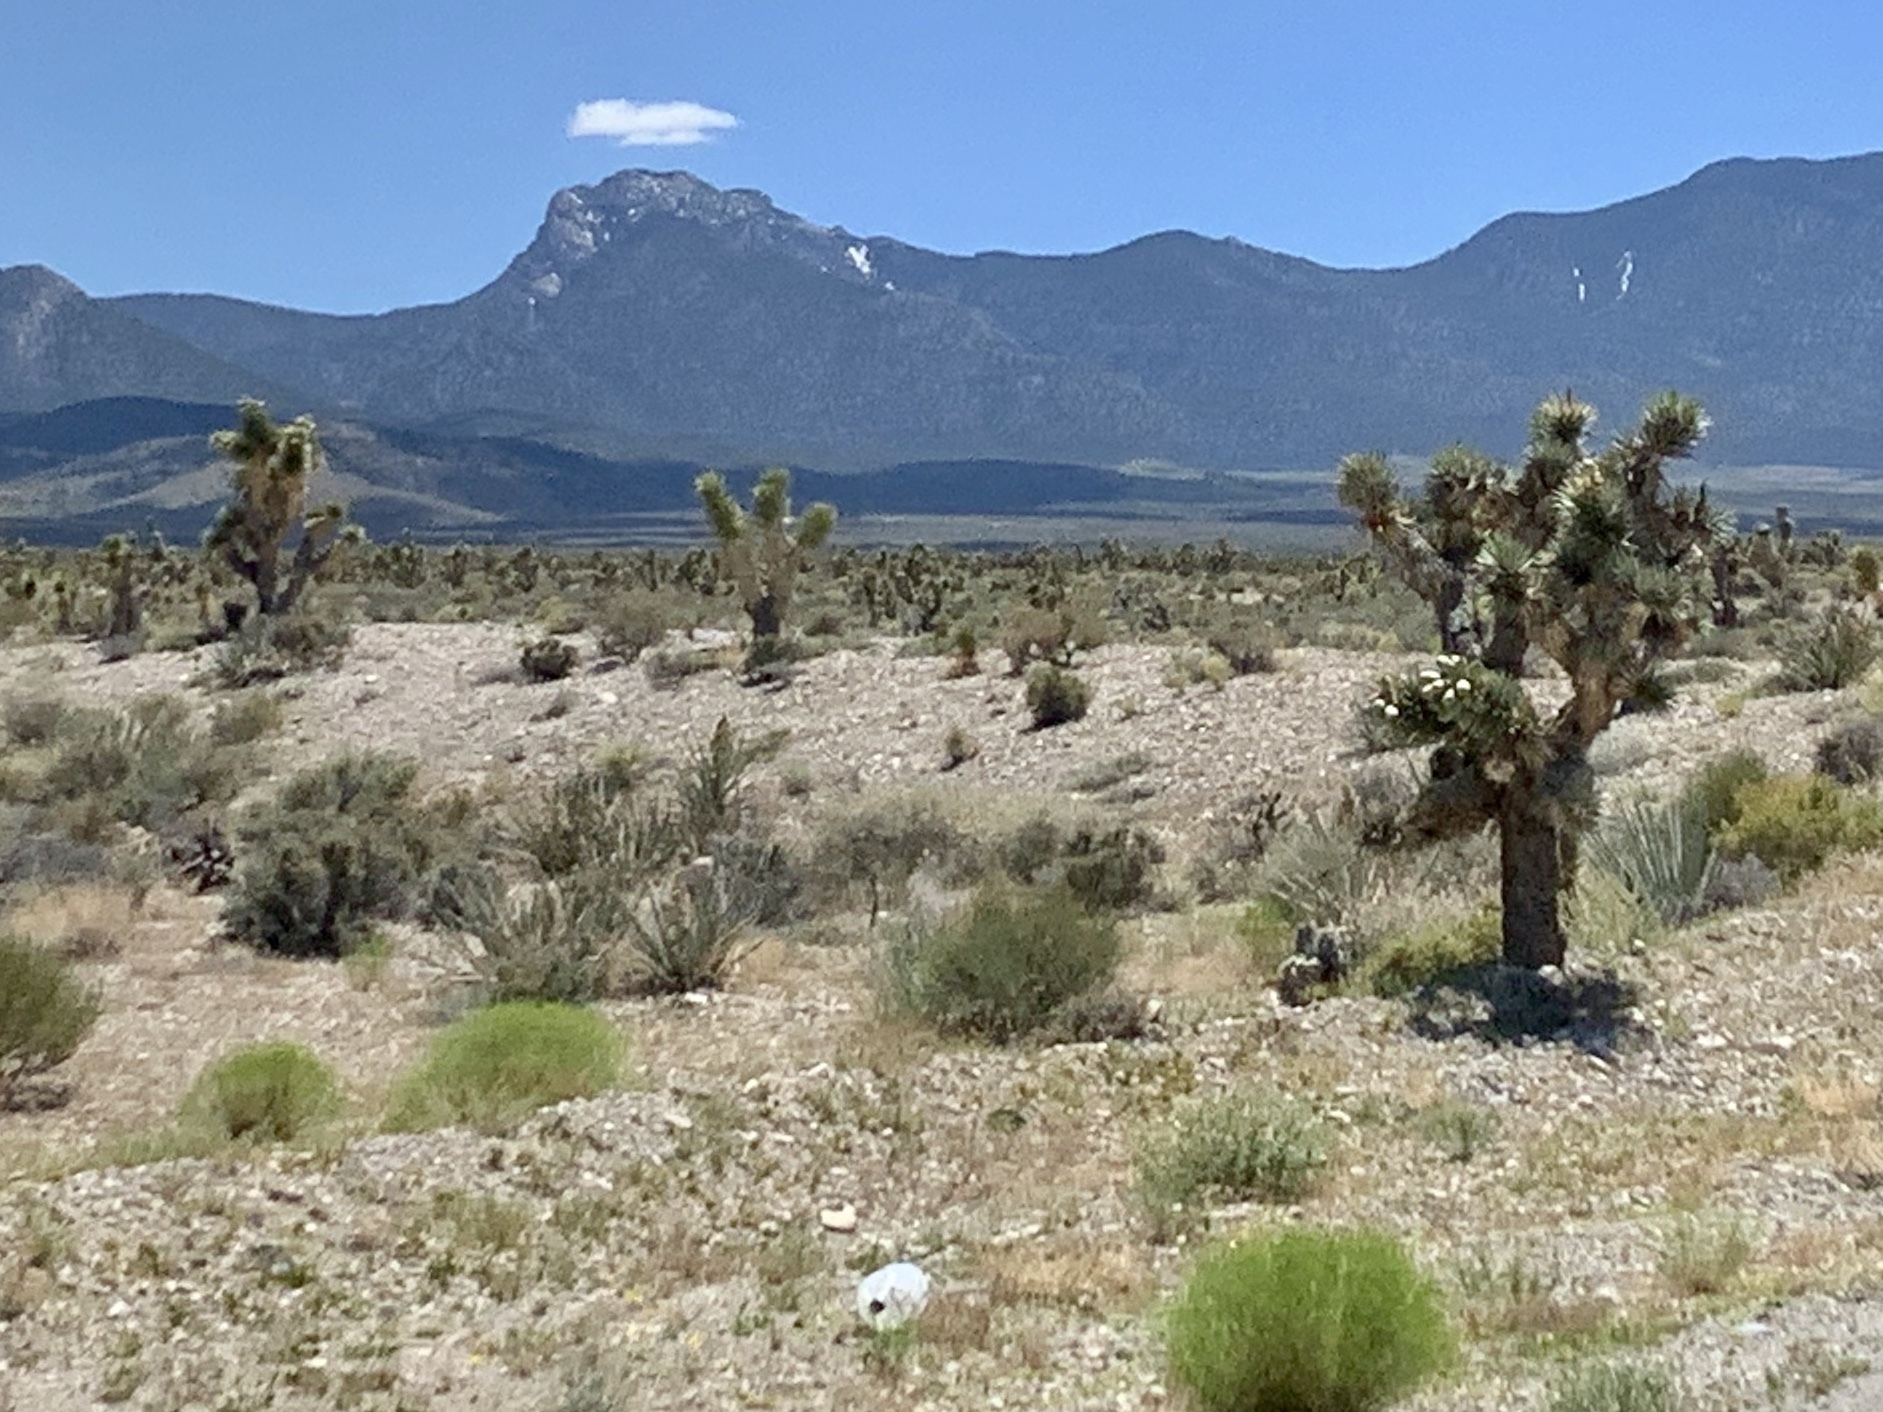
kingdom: Plantae
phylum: Tracheophyta
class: Liliopsida
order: Asparagales
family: Asparagaceae
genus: Yucca
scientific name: Yucca brevifolia
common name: Joshua tree
